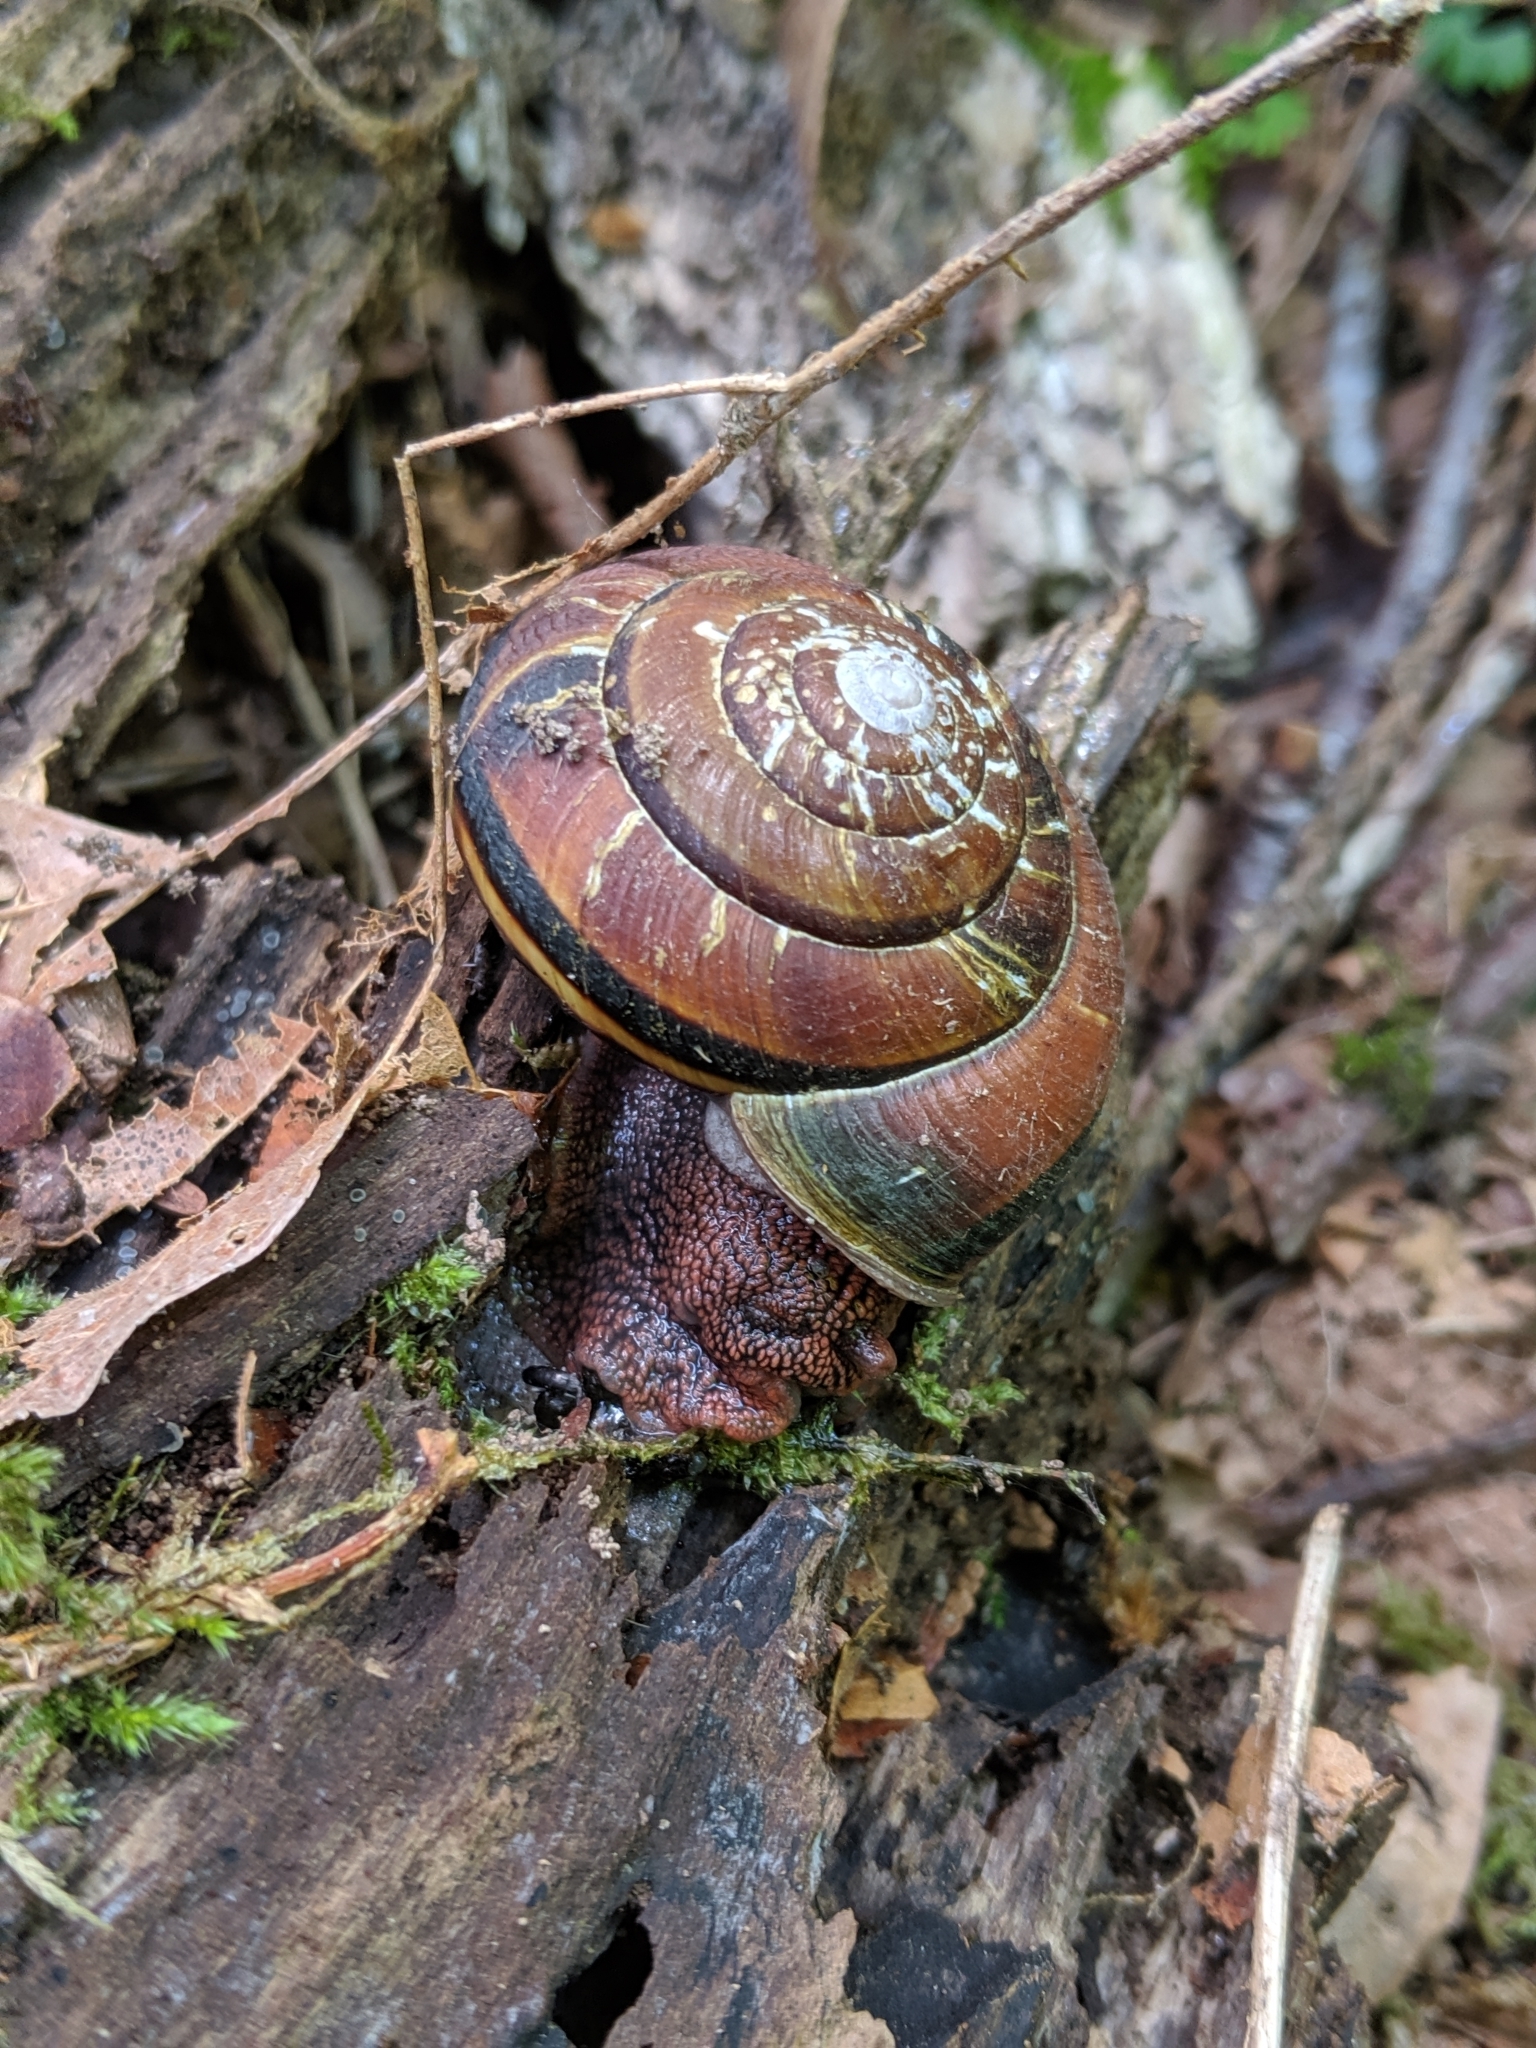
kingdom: Animalia
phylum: Mollusca
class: Gastropoda
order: Stylommatophora
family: Xanthonychidae
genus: Monadenia
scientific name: Monadenia fidelis
